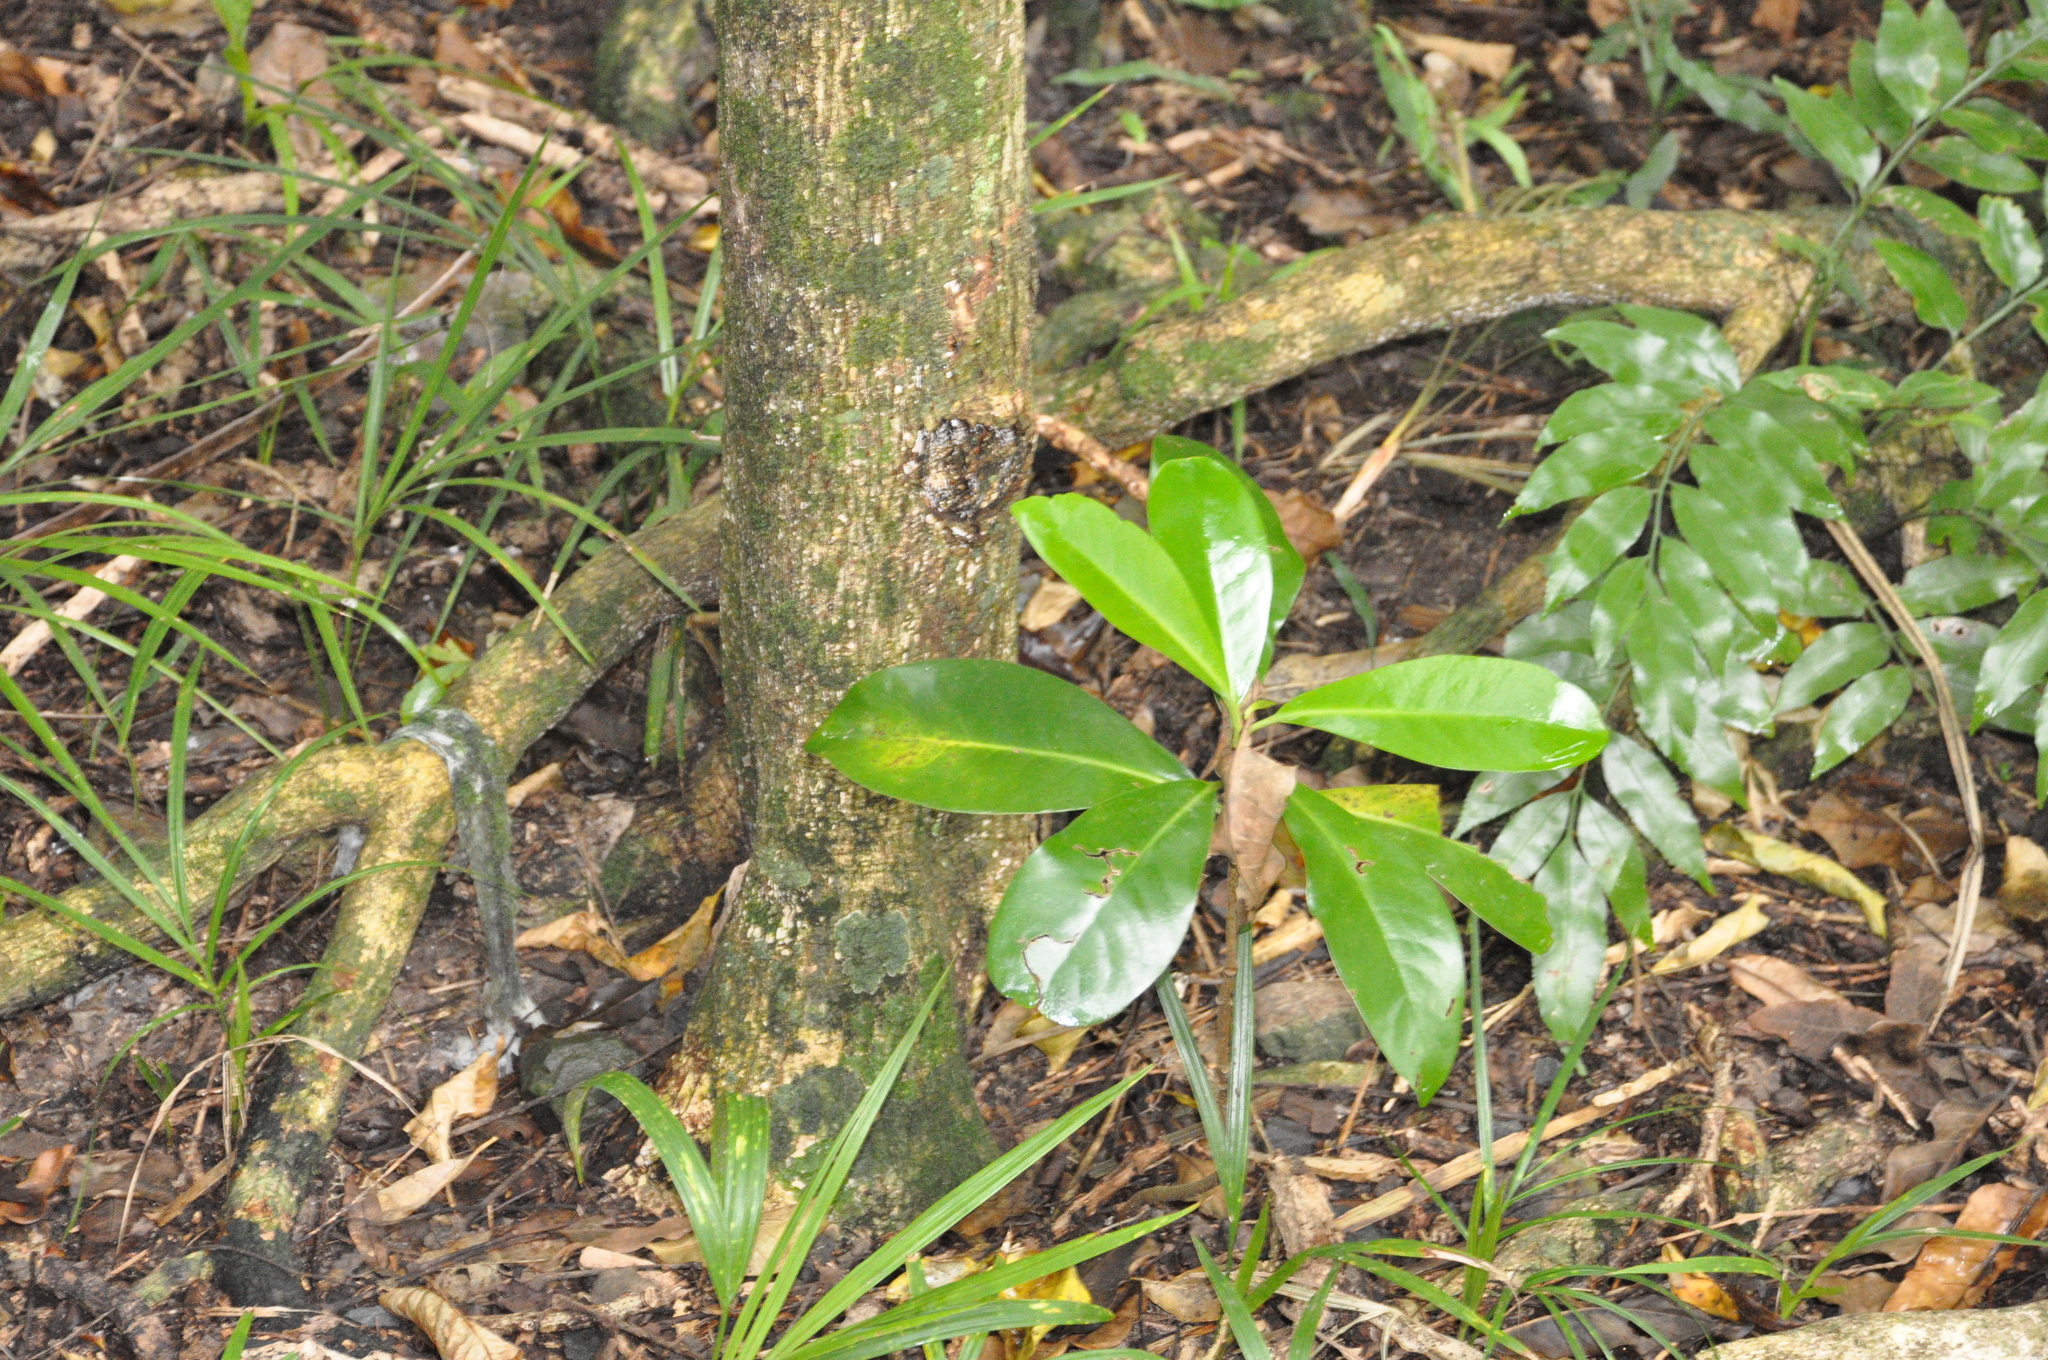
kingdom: Plantae
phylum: Tracheophyta
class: Magnoliopsida
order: Cucurbitales
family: Corynocarpaceae
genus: Corynocarpus
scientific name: Corynocarpus laevigatus
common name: New zealand laurel
